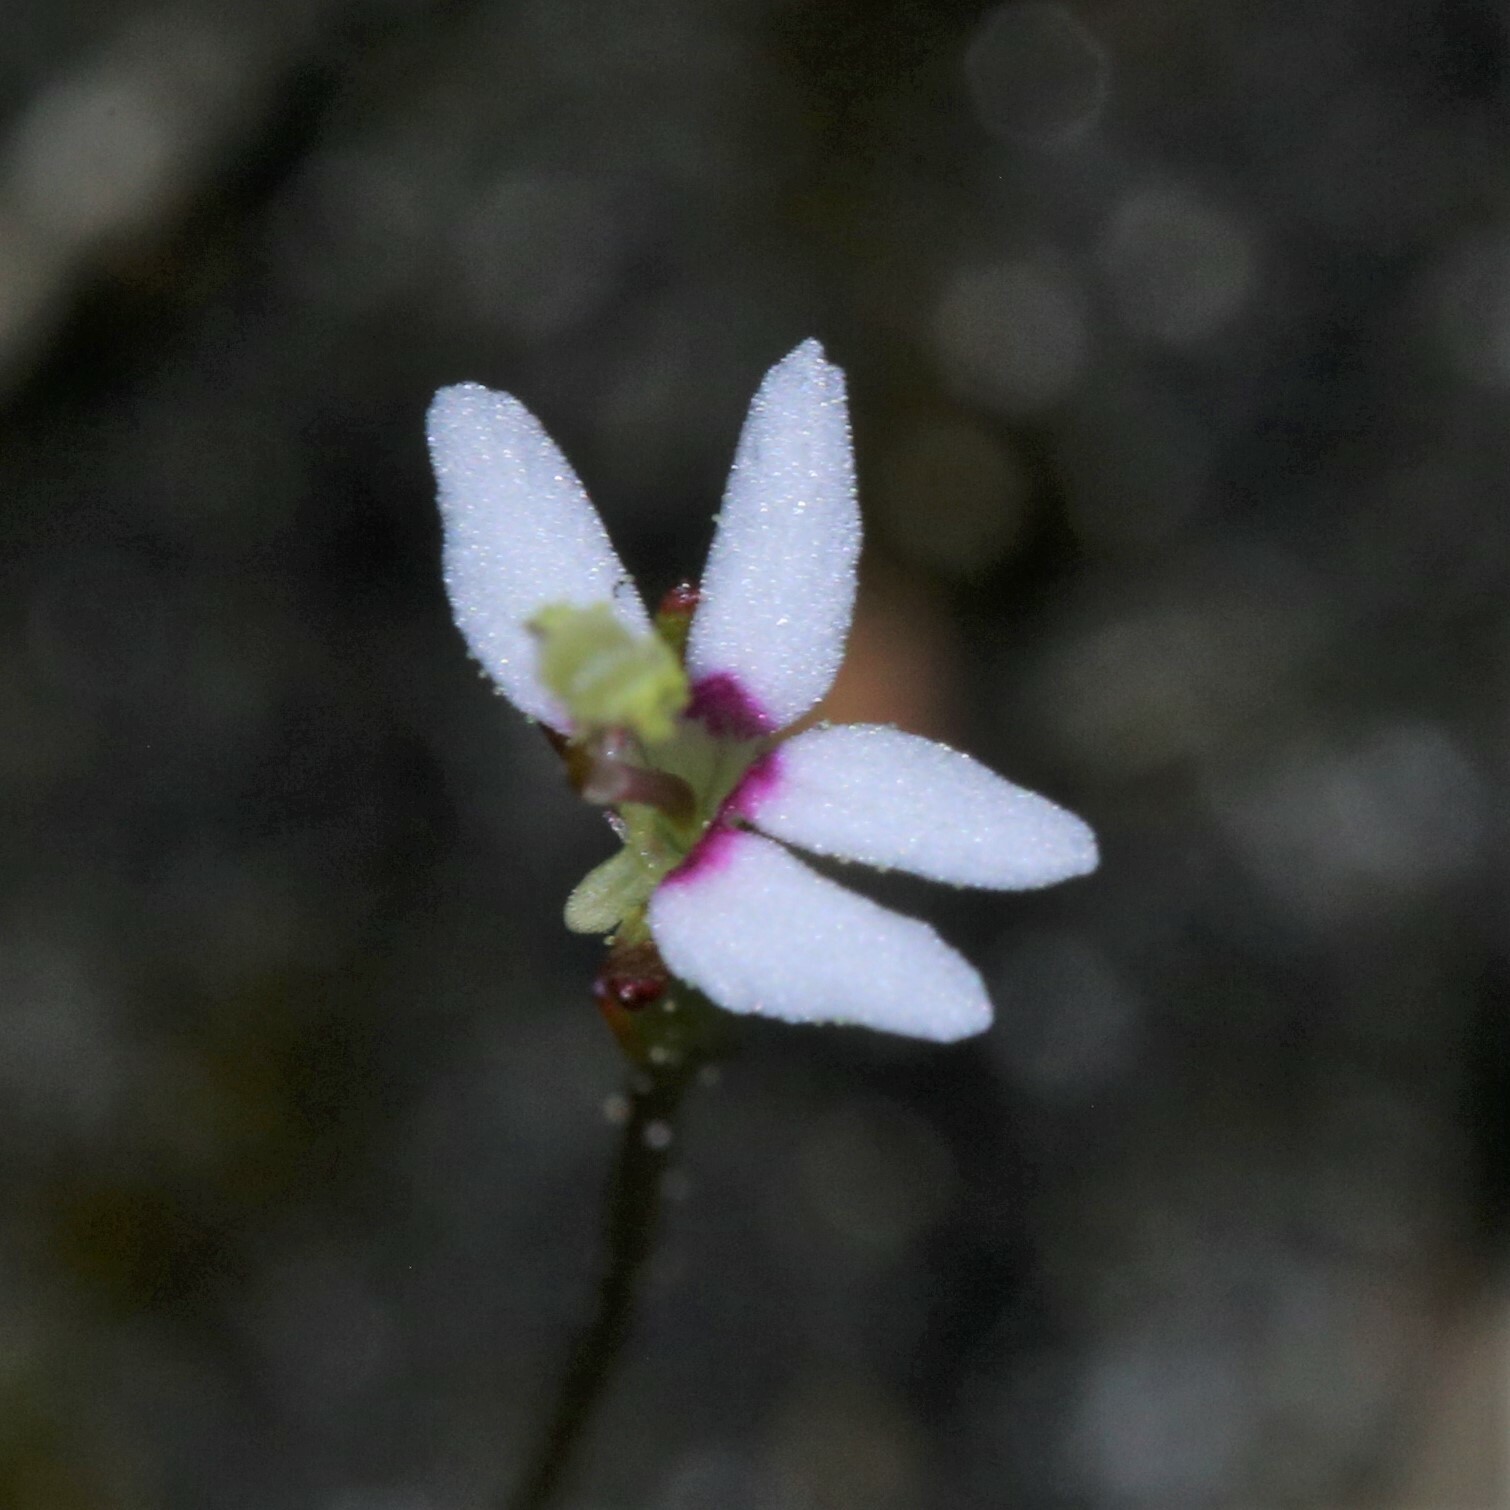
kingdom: Plantae
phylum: Tracheophyta
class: Magnoliopsida
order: Asterales
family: Stylidiaceae
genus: Stylidium
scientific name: Stylidium pygmaeum
